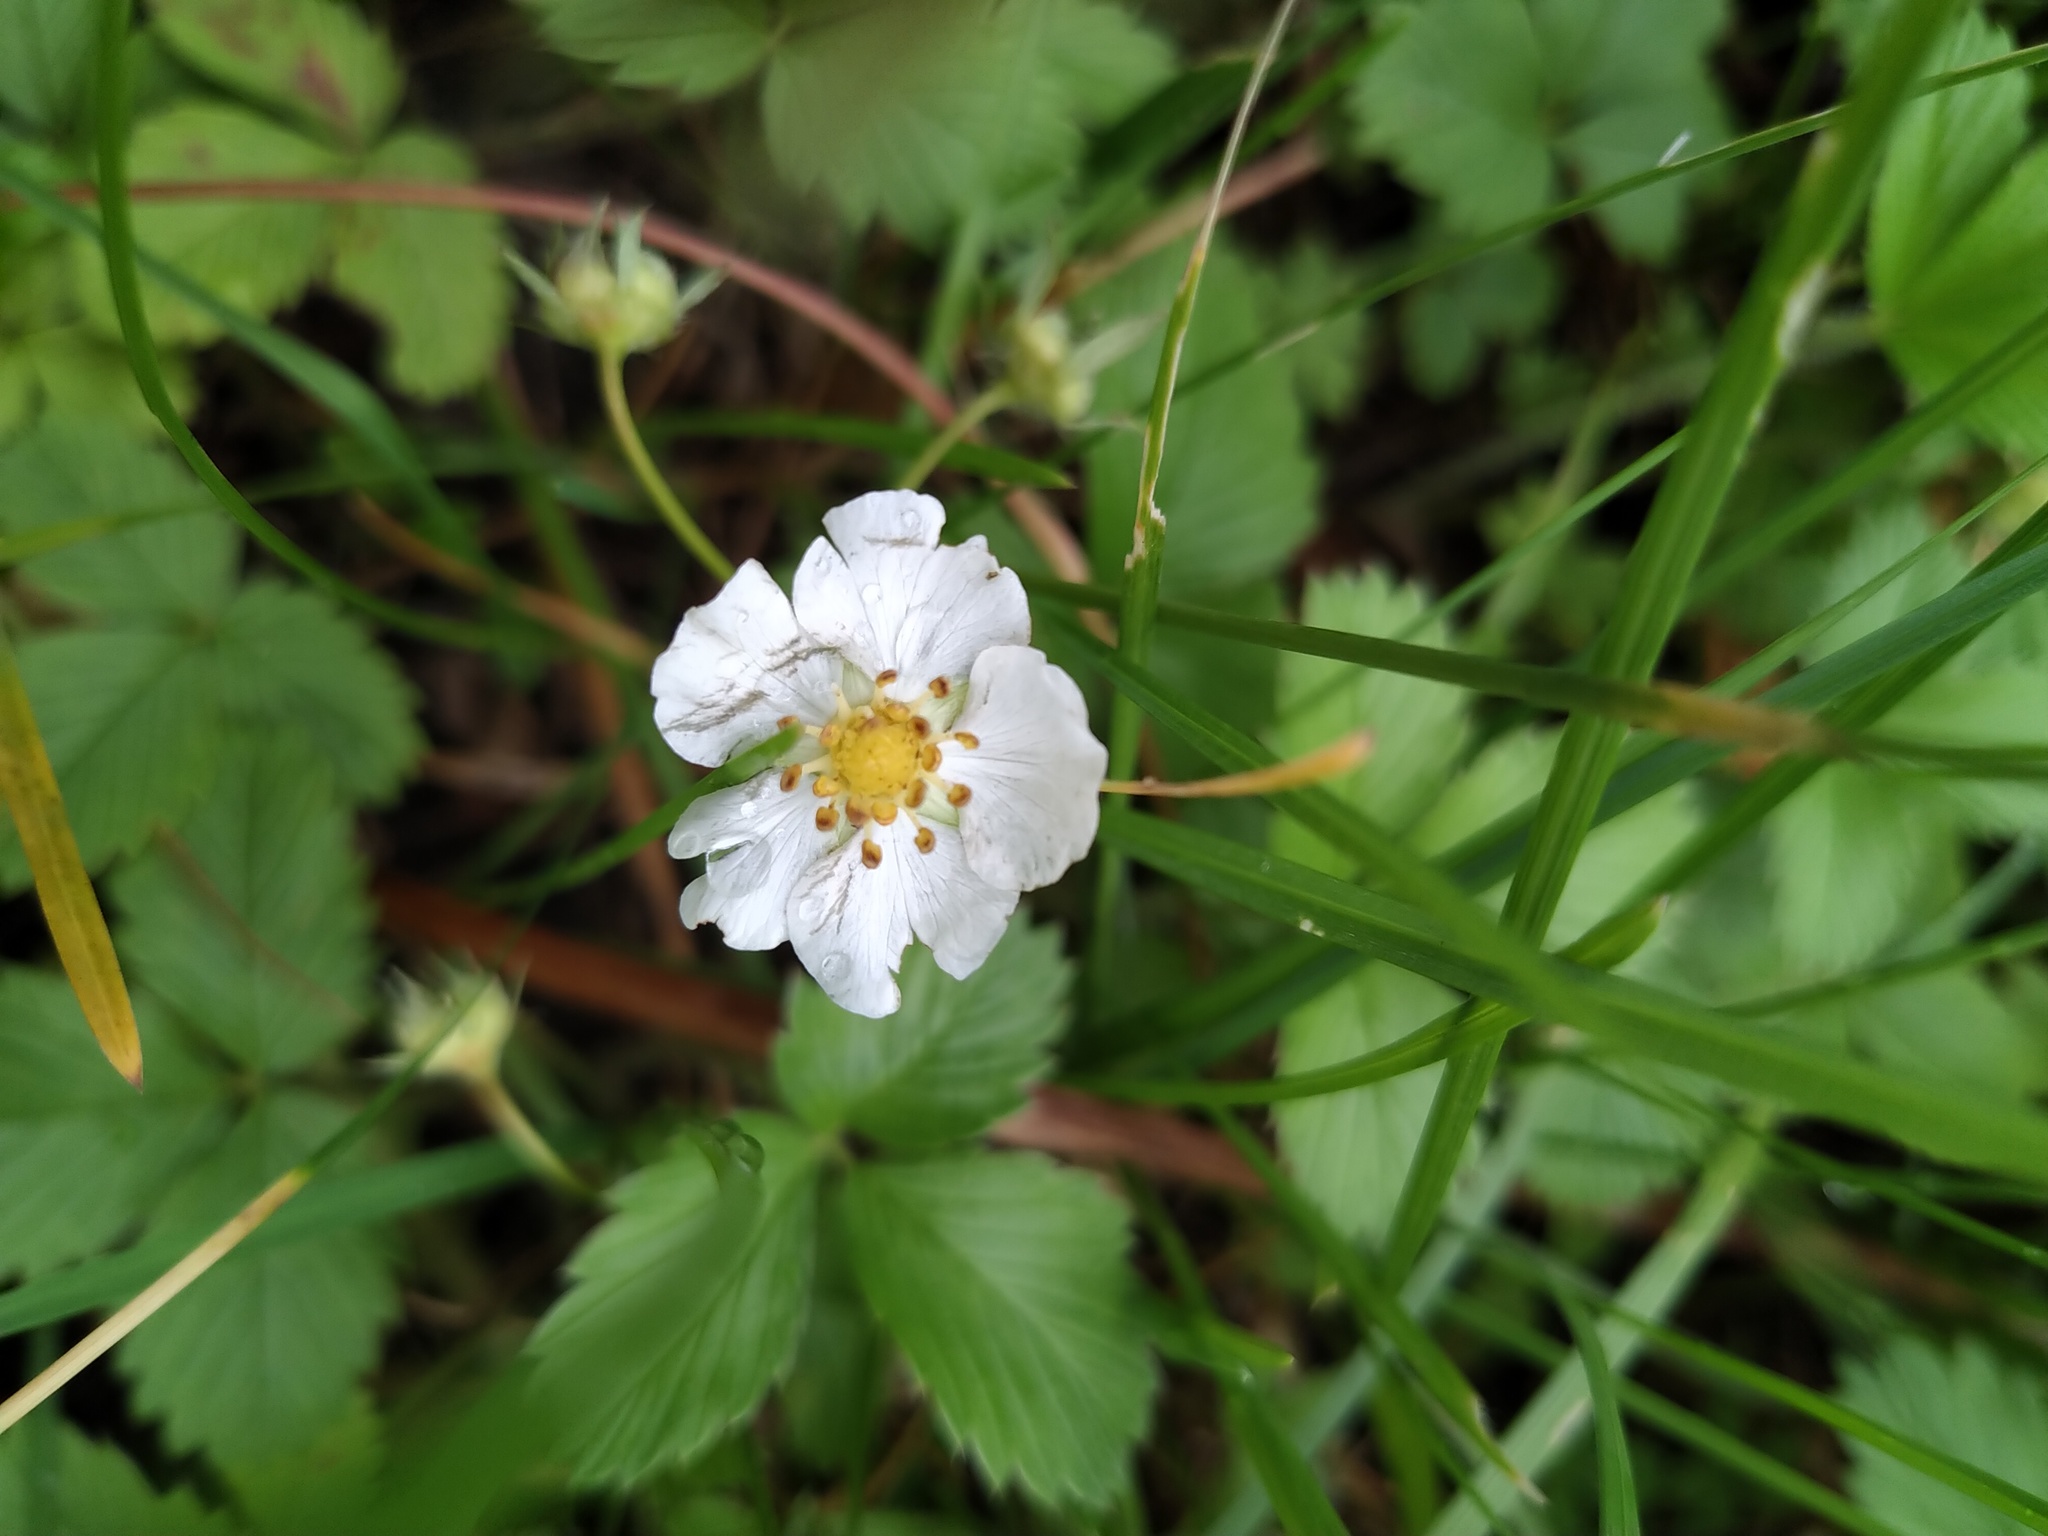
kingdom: Plantae
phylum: Tracheophyta
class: Magnoliopsida
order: Rosales
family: Rosaceae
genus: Fragaria
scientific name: Fragaria viridis
